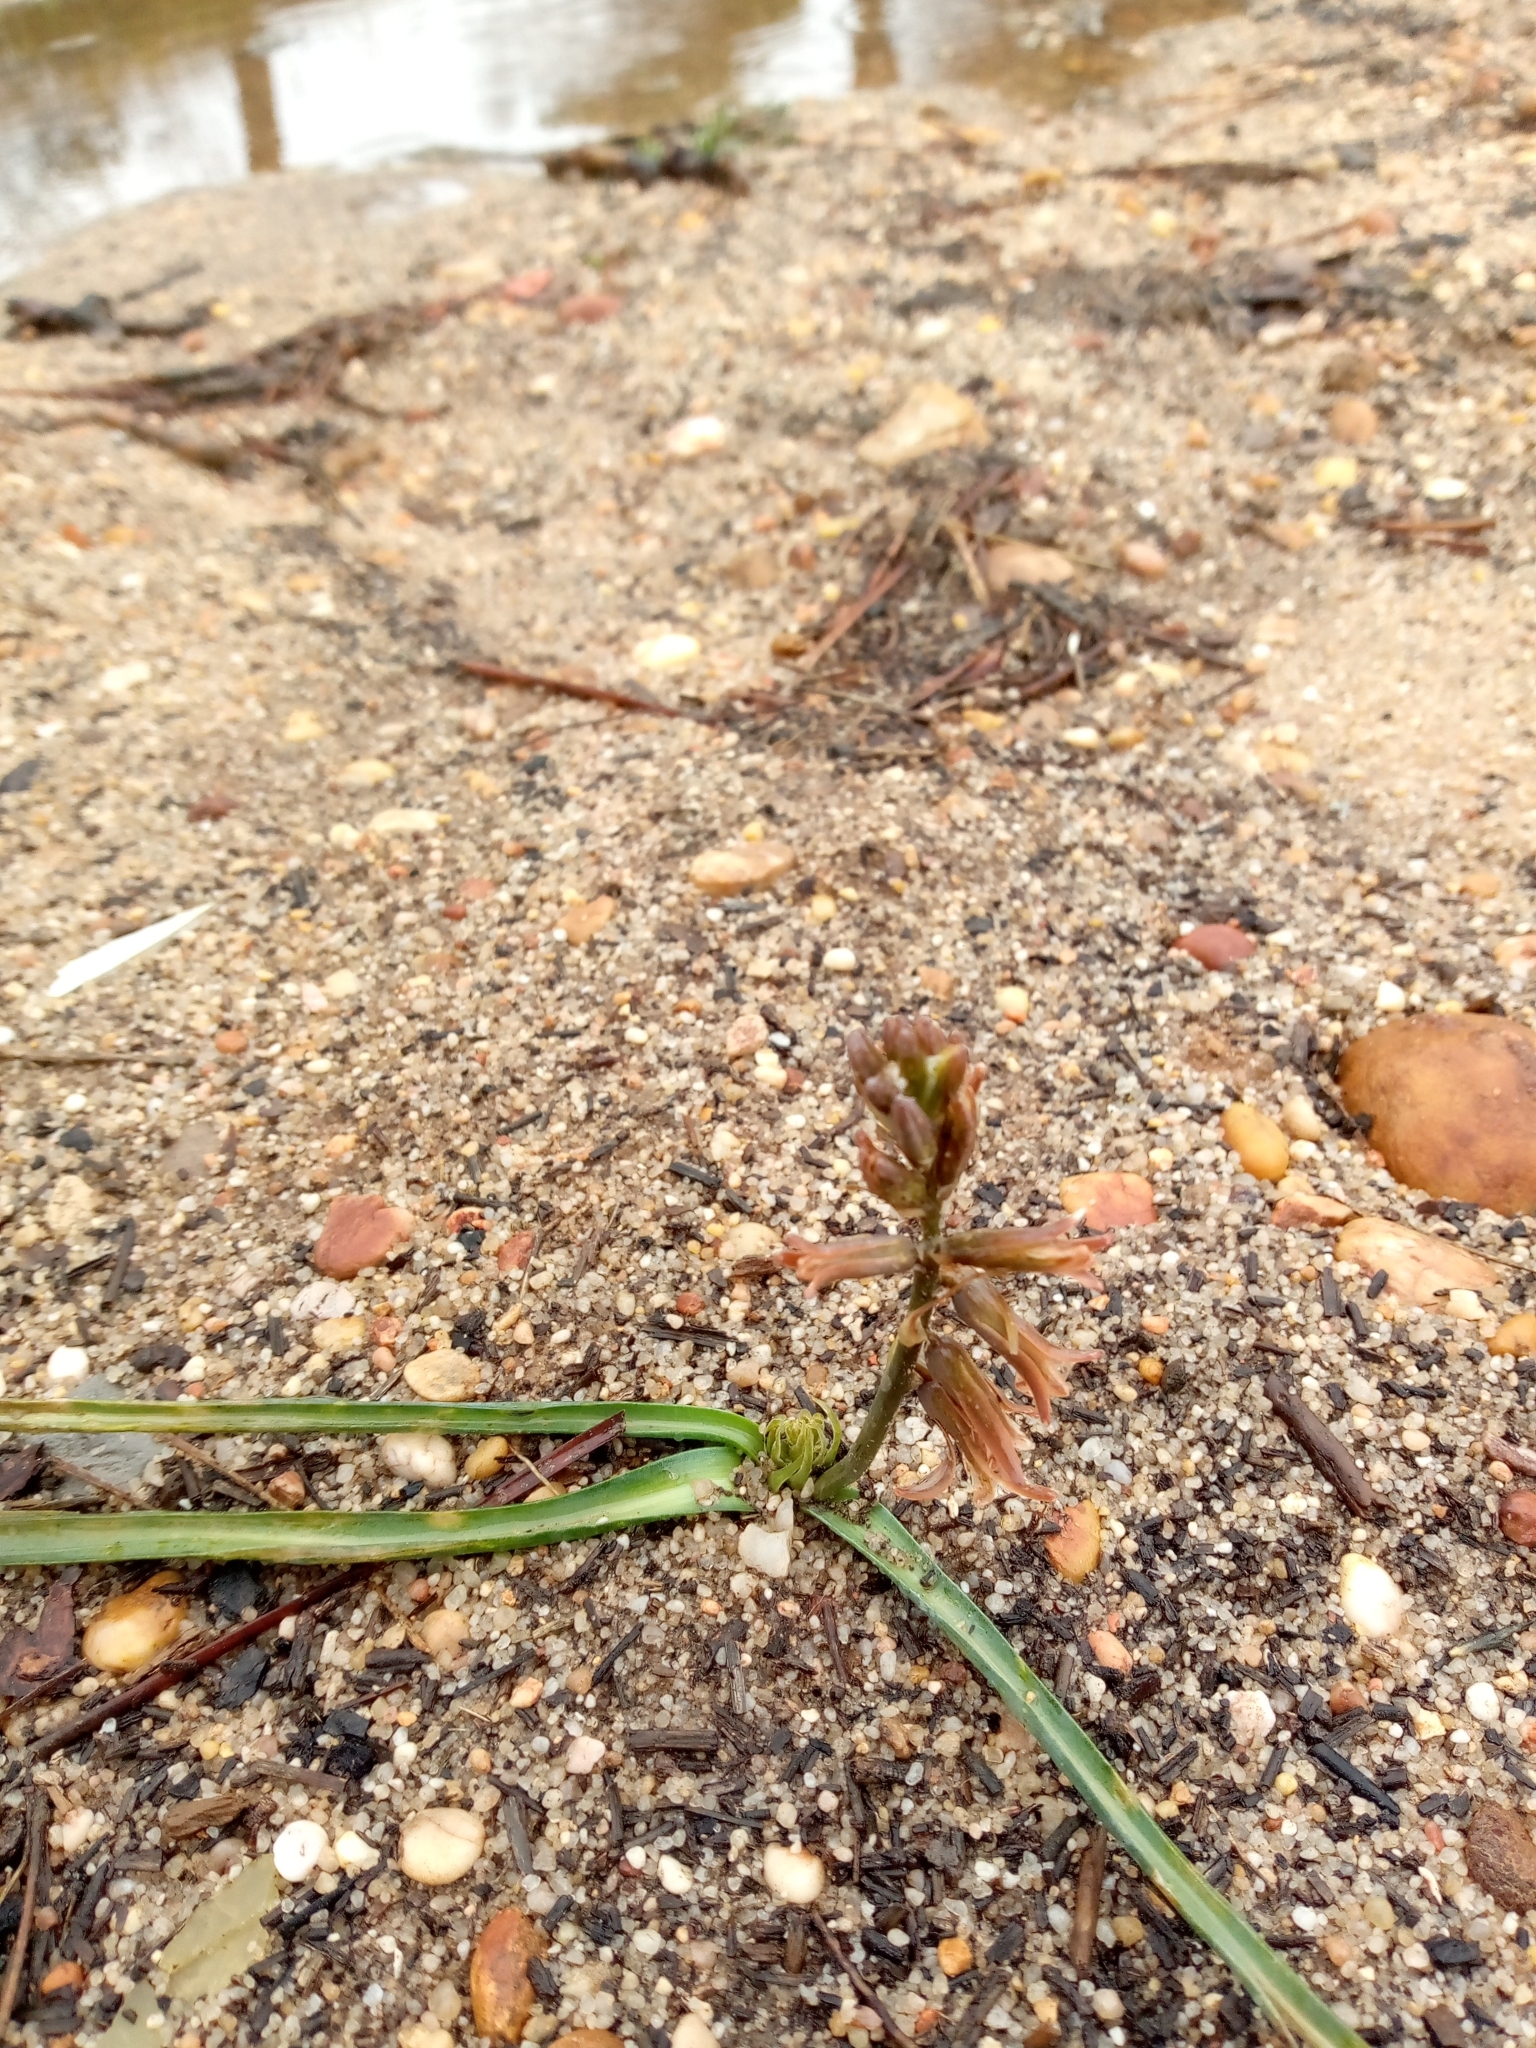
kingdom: Plantae
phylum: Tracheophyta
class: Liliopsida
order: Asparagales
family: Asparagaceae
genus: Dipcadi
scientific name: Dipcadi serotinum
